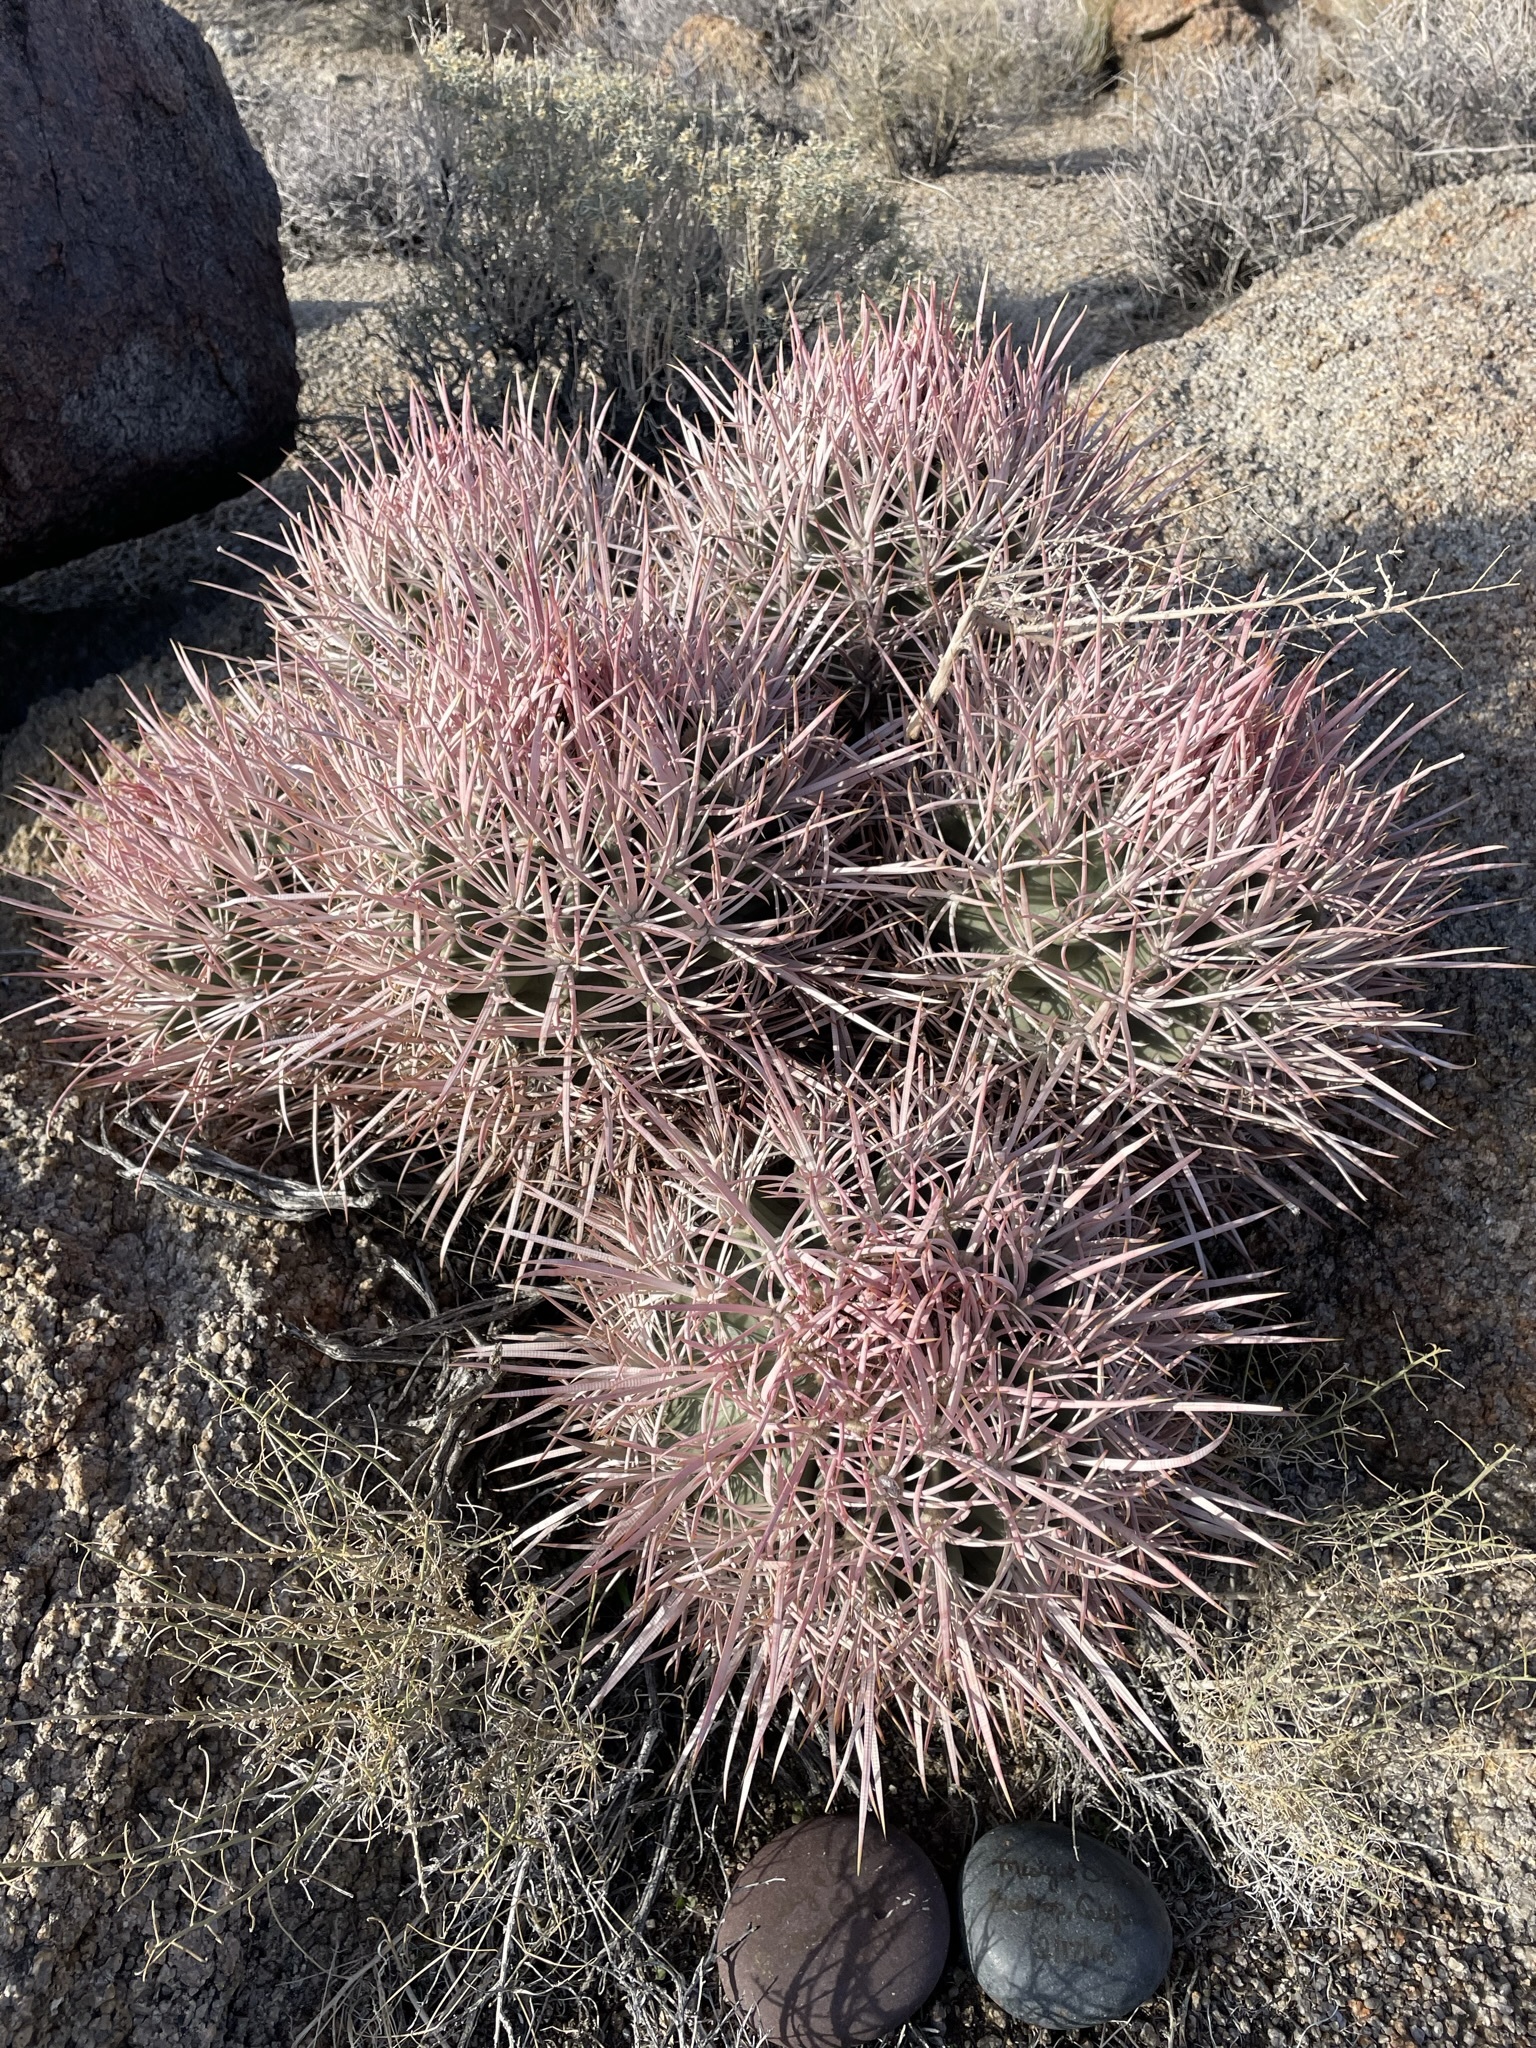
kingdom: Plantae
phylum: Tracheophyta
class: Magnoliopsida
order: Caryophyllales
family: Cactaceae
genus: Echinocactus
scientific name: Echinocactus polycephalus
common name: Cottontop cactus
